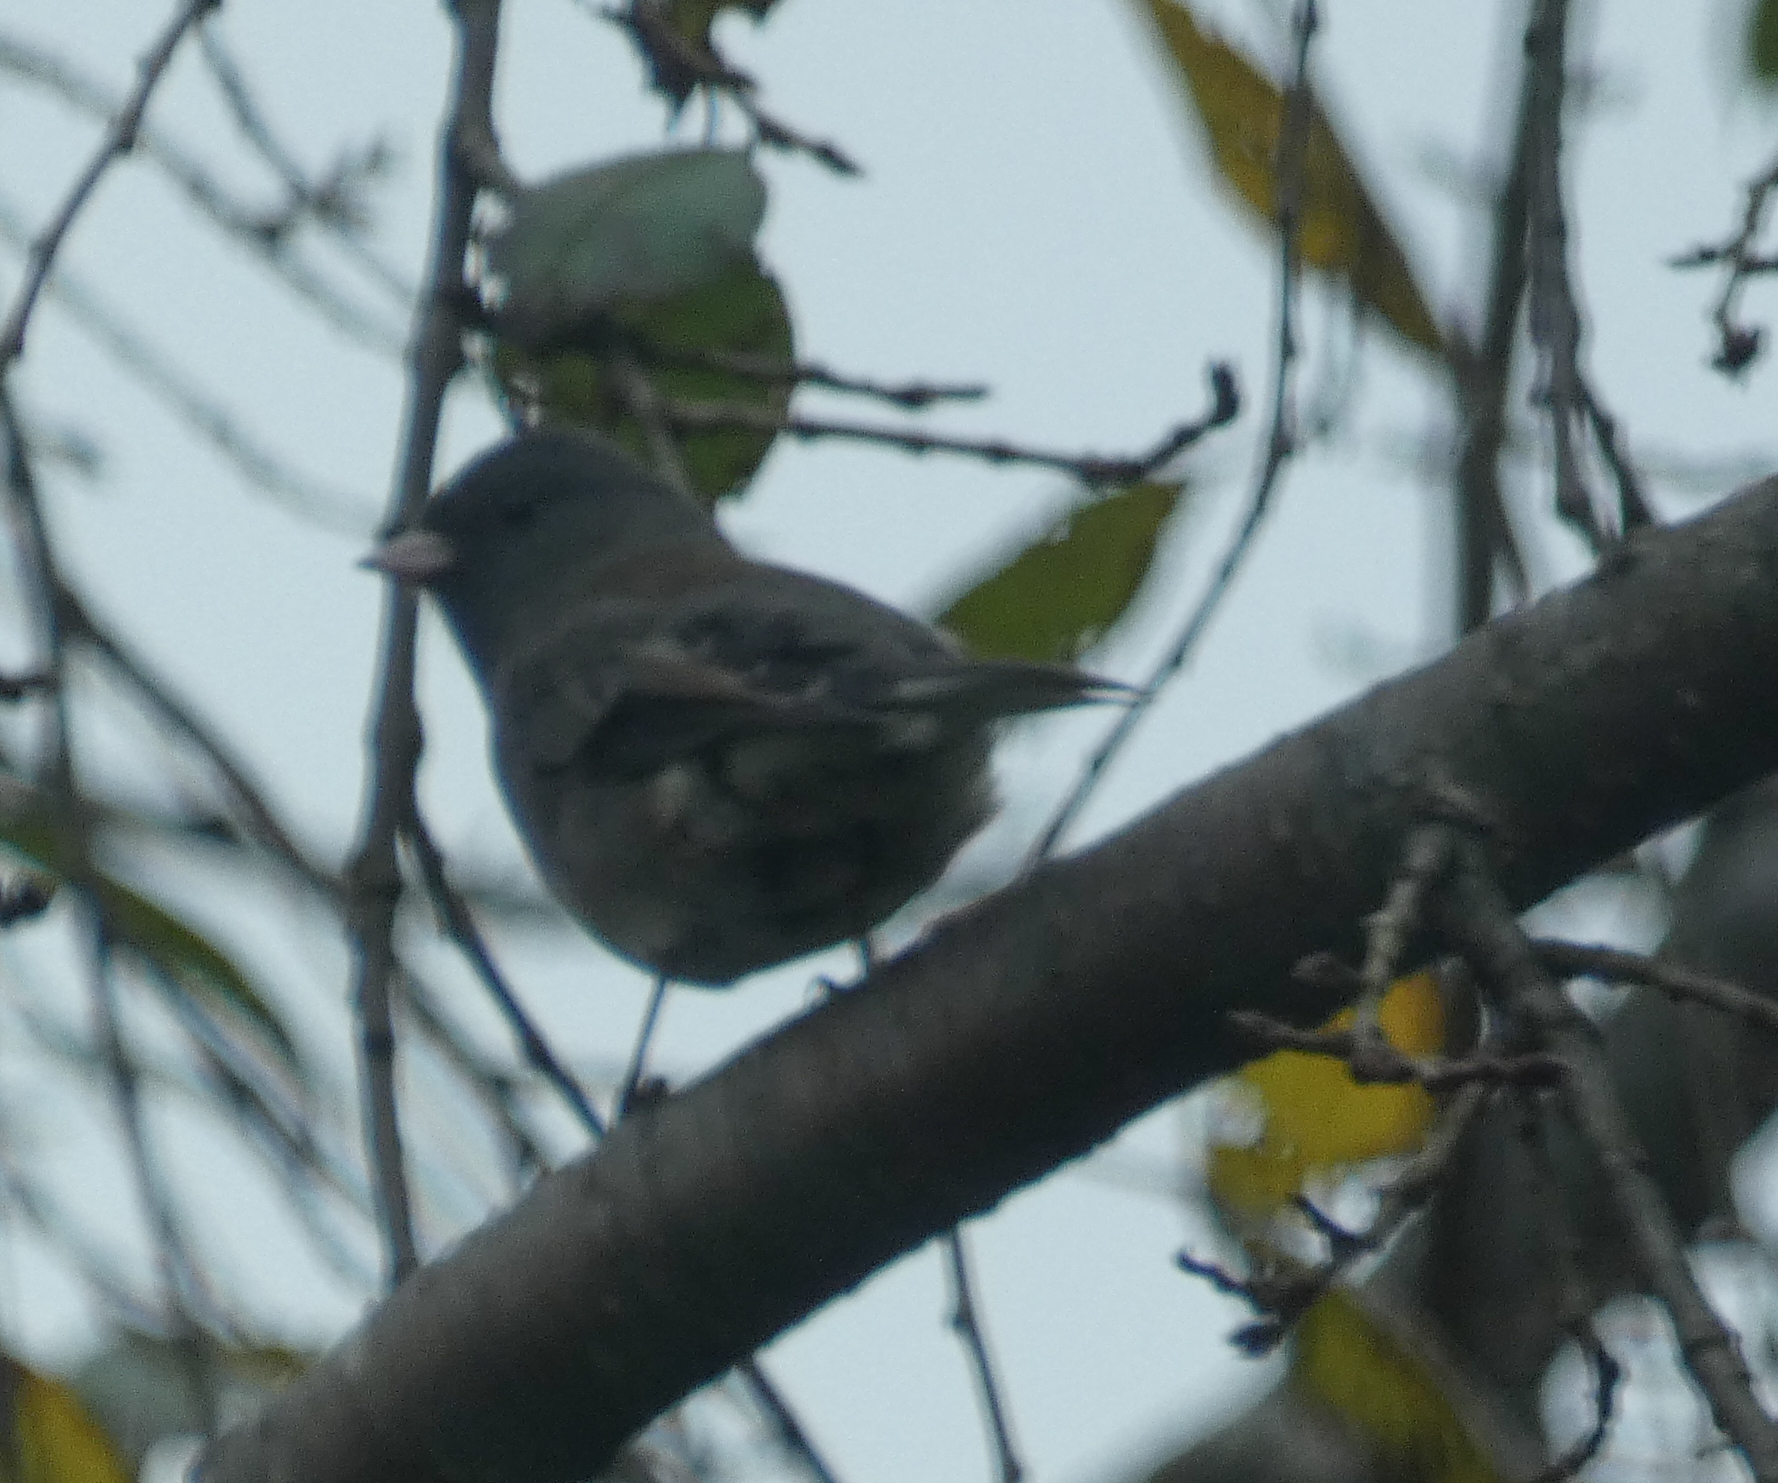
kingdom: Animalia
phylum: Chordata
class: Aves
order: Passeriformes
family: Passerellidae
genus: Junco
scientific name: Junco hyemalis
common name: Dark-eyed junco
